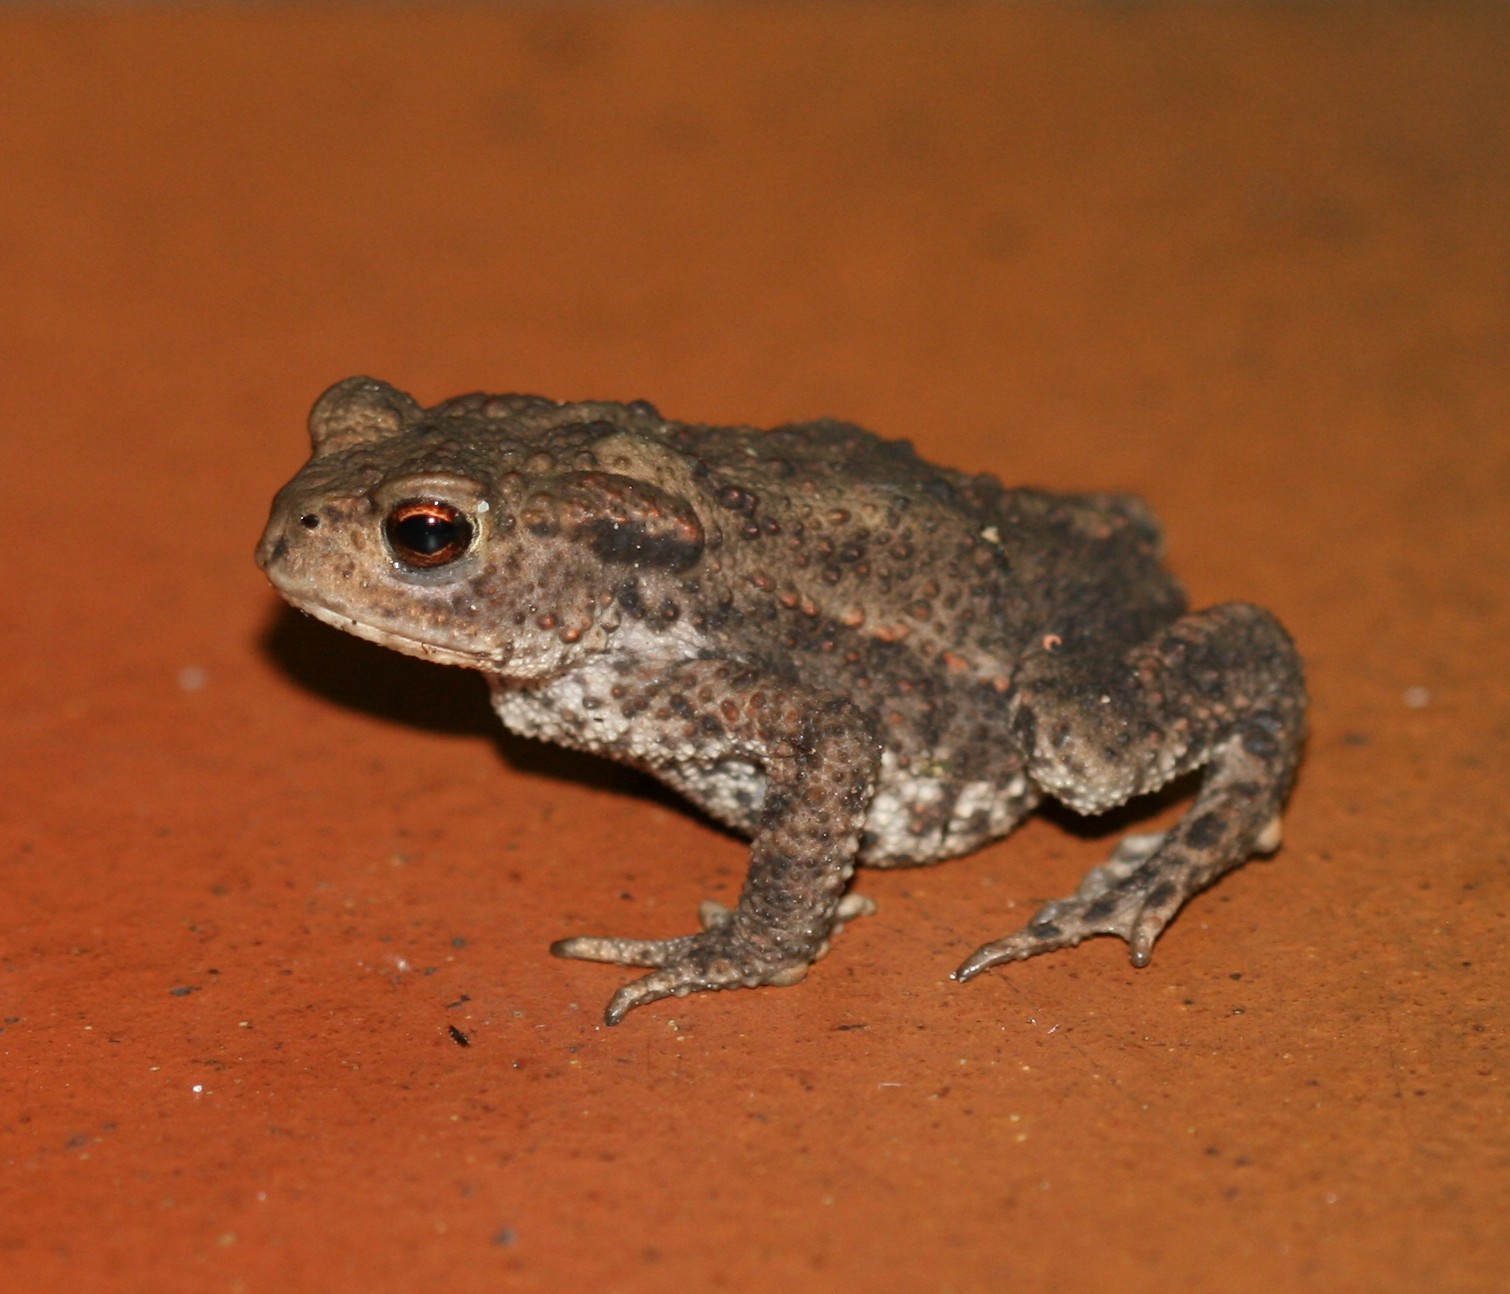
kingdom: Animalia
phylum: Chordata
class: Amphibia
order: Anura
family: Bufonidae
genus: Bufo
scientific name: Bufo bufo
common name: Common toad
